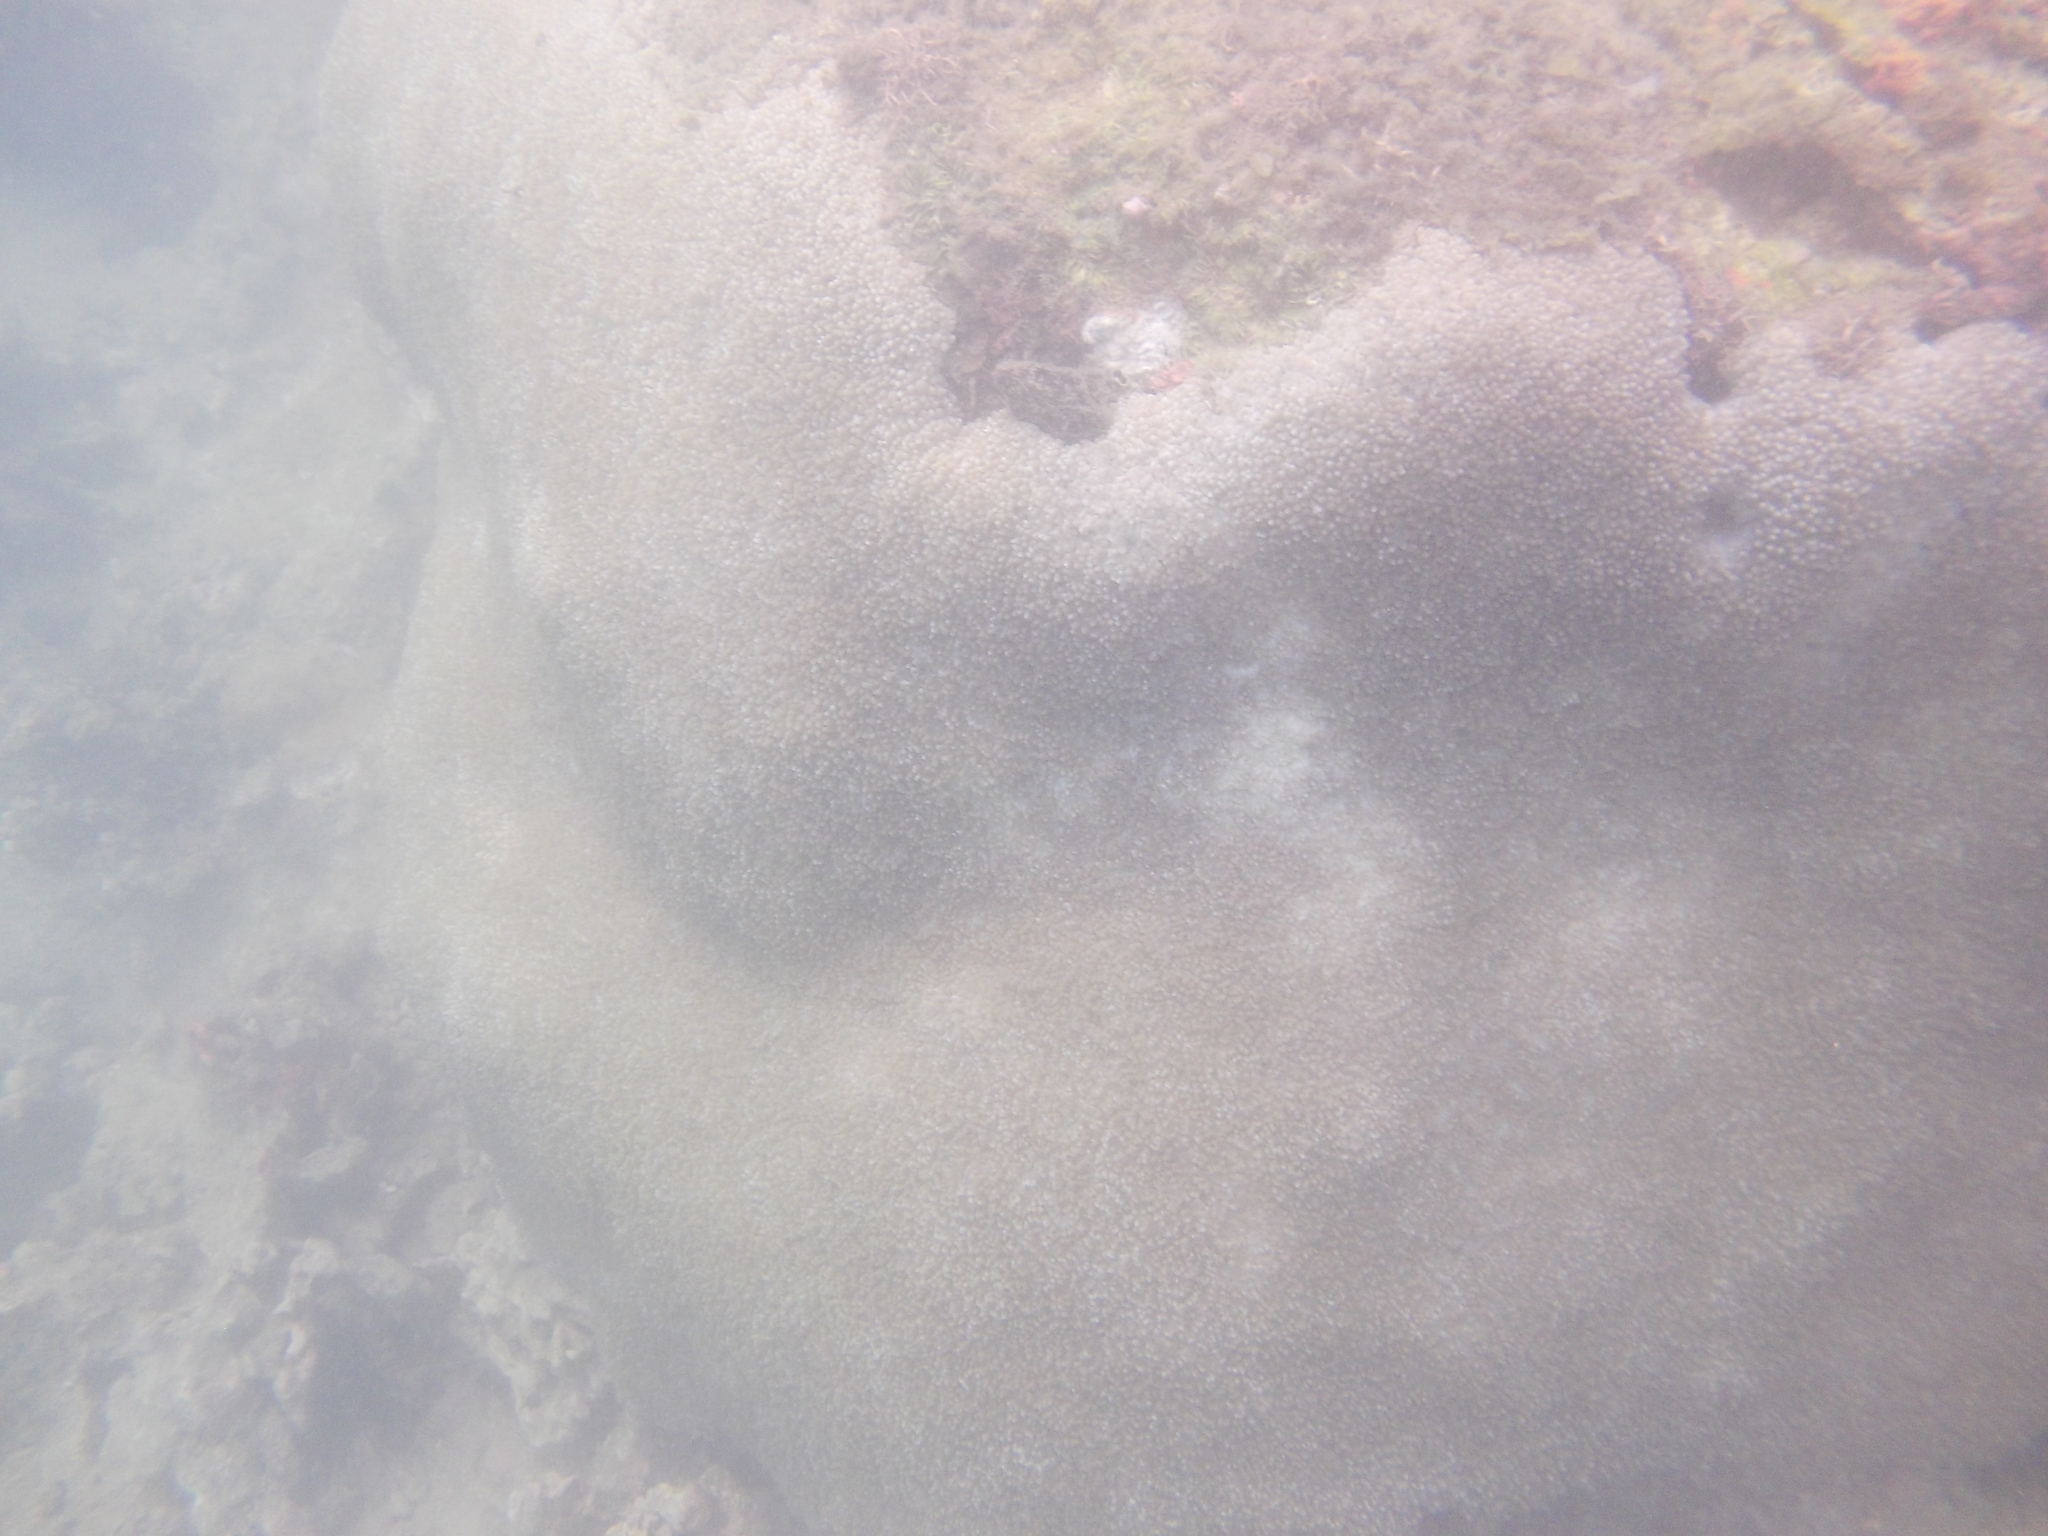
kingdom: Animalia
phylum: Cnidaria
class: Anthozoa
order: Scleractinia
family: Plerogyridae
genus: Physogyra
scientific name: Physogyra lichtensteini
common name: Tipped bubblegum coral
